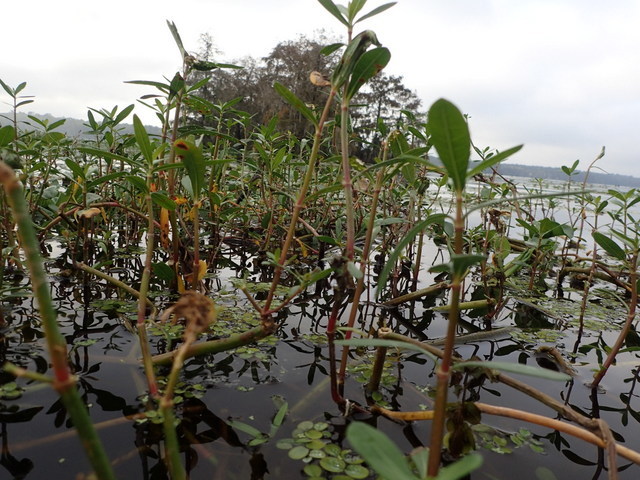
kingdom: Plantae
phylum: Tracheophyta
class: Magnoliopsida
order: Caryophyllales
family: Amaranthaceae
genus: Alternanthera
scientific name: Alternanthera philoxeroides
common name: Alligatorweed
